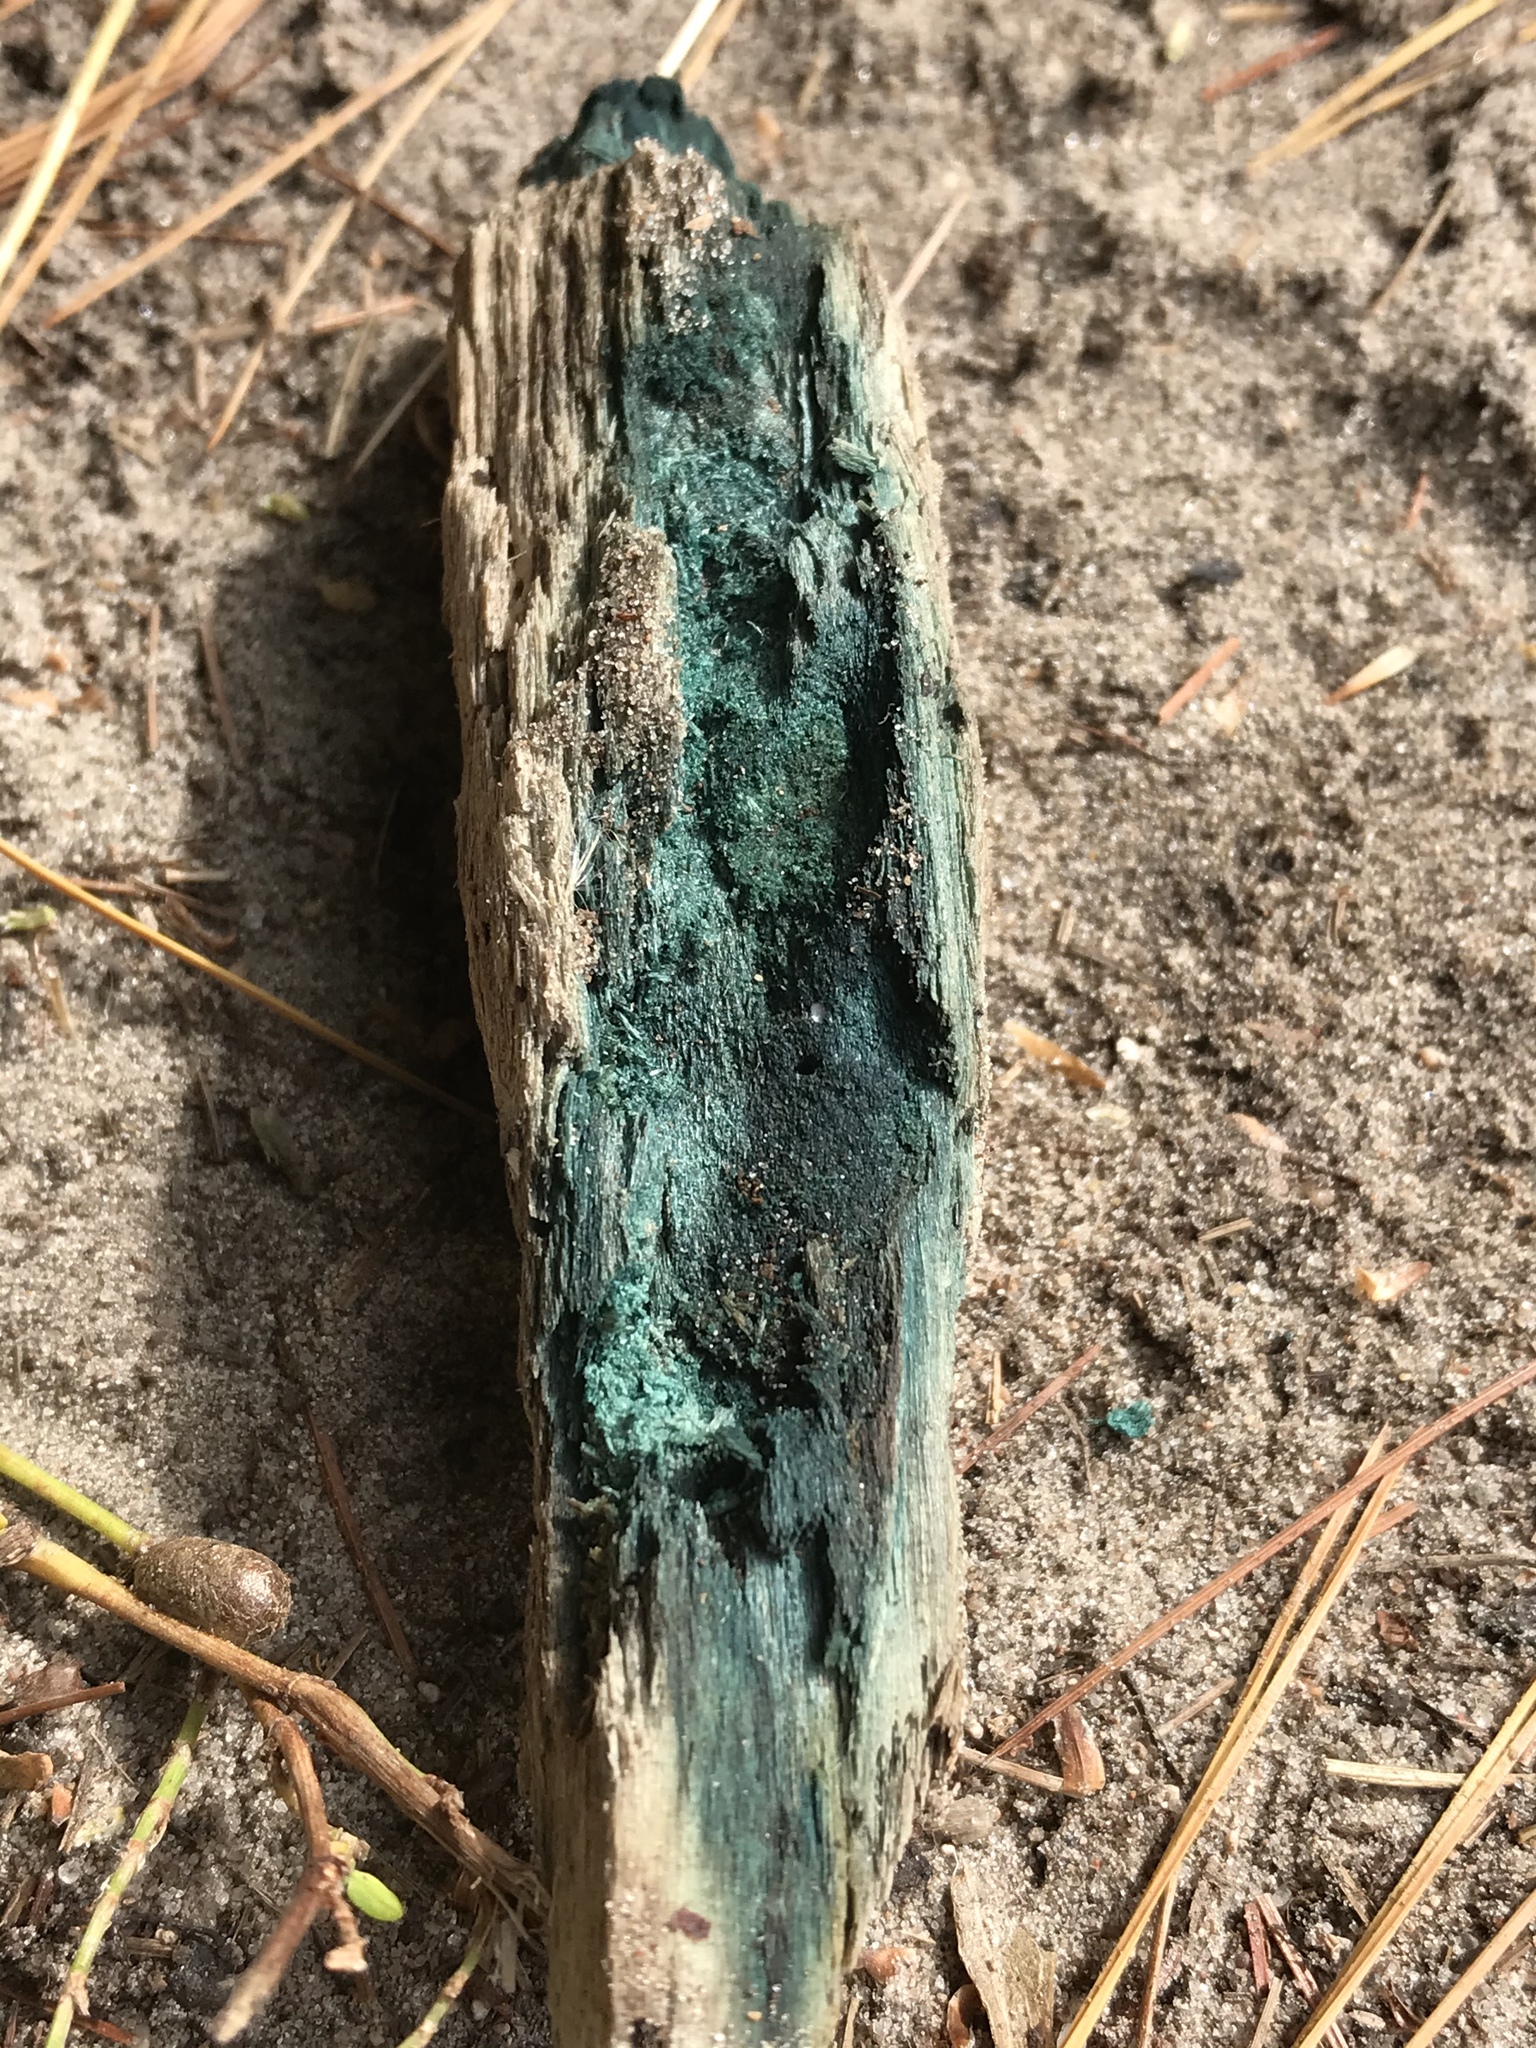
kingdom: Fungi
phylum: Ascomycota
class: Leotiomycetes
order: Helotiales
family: Chlorociboriaceae
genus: Chlorociboria
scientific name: Chlorociboria
